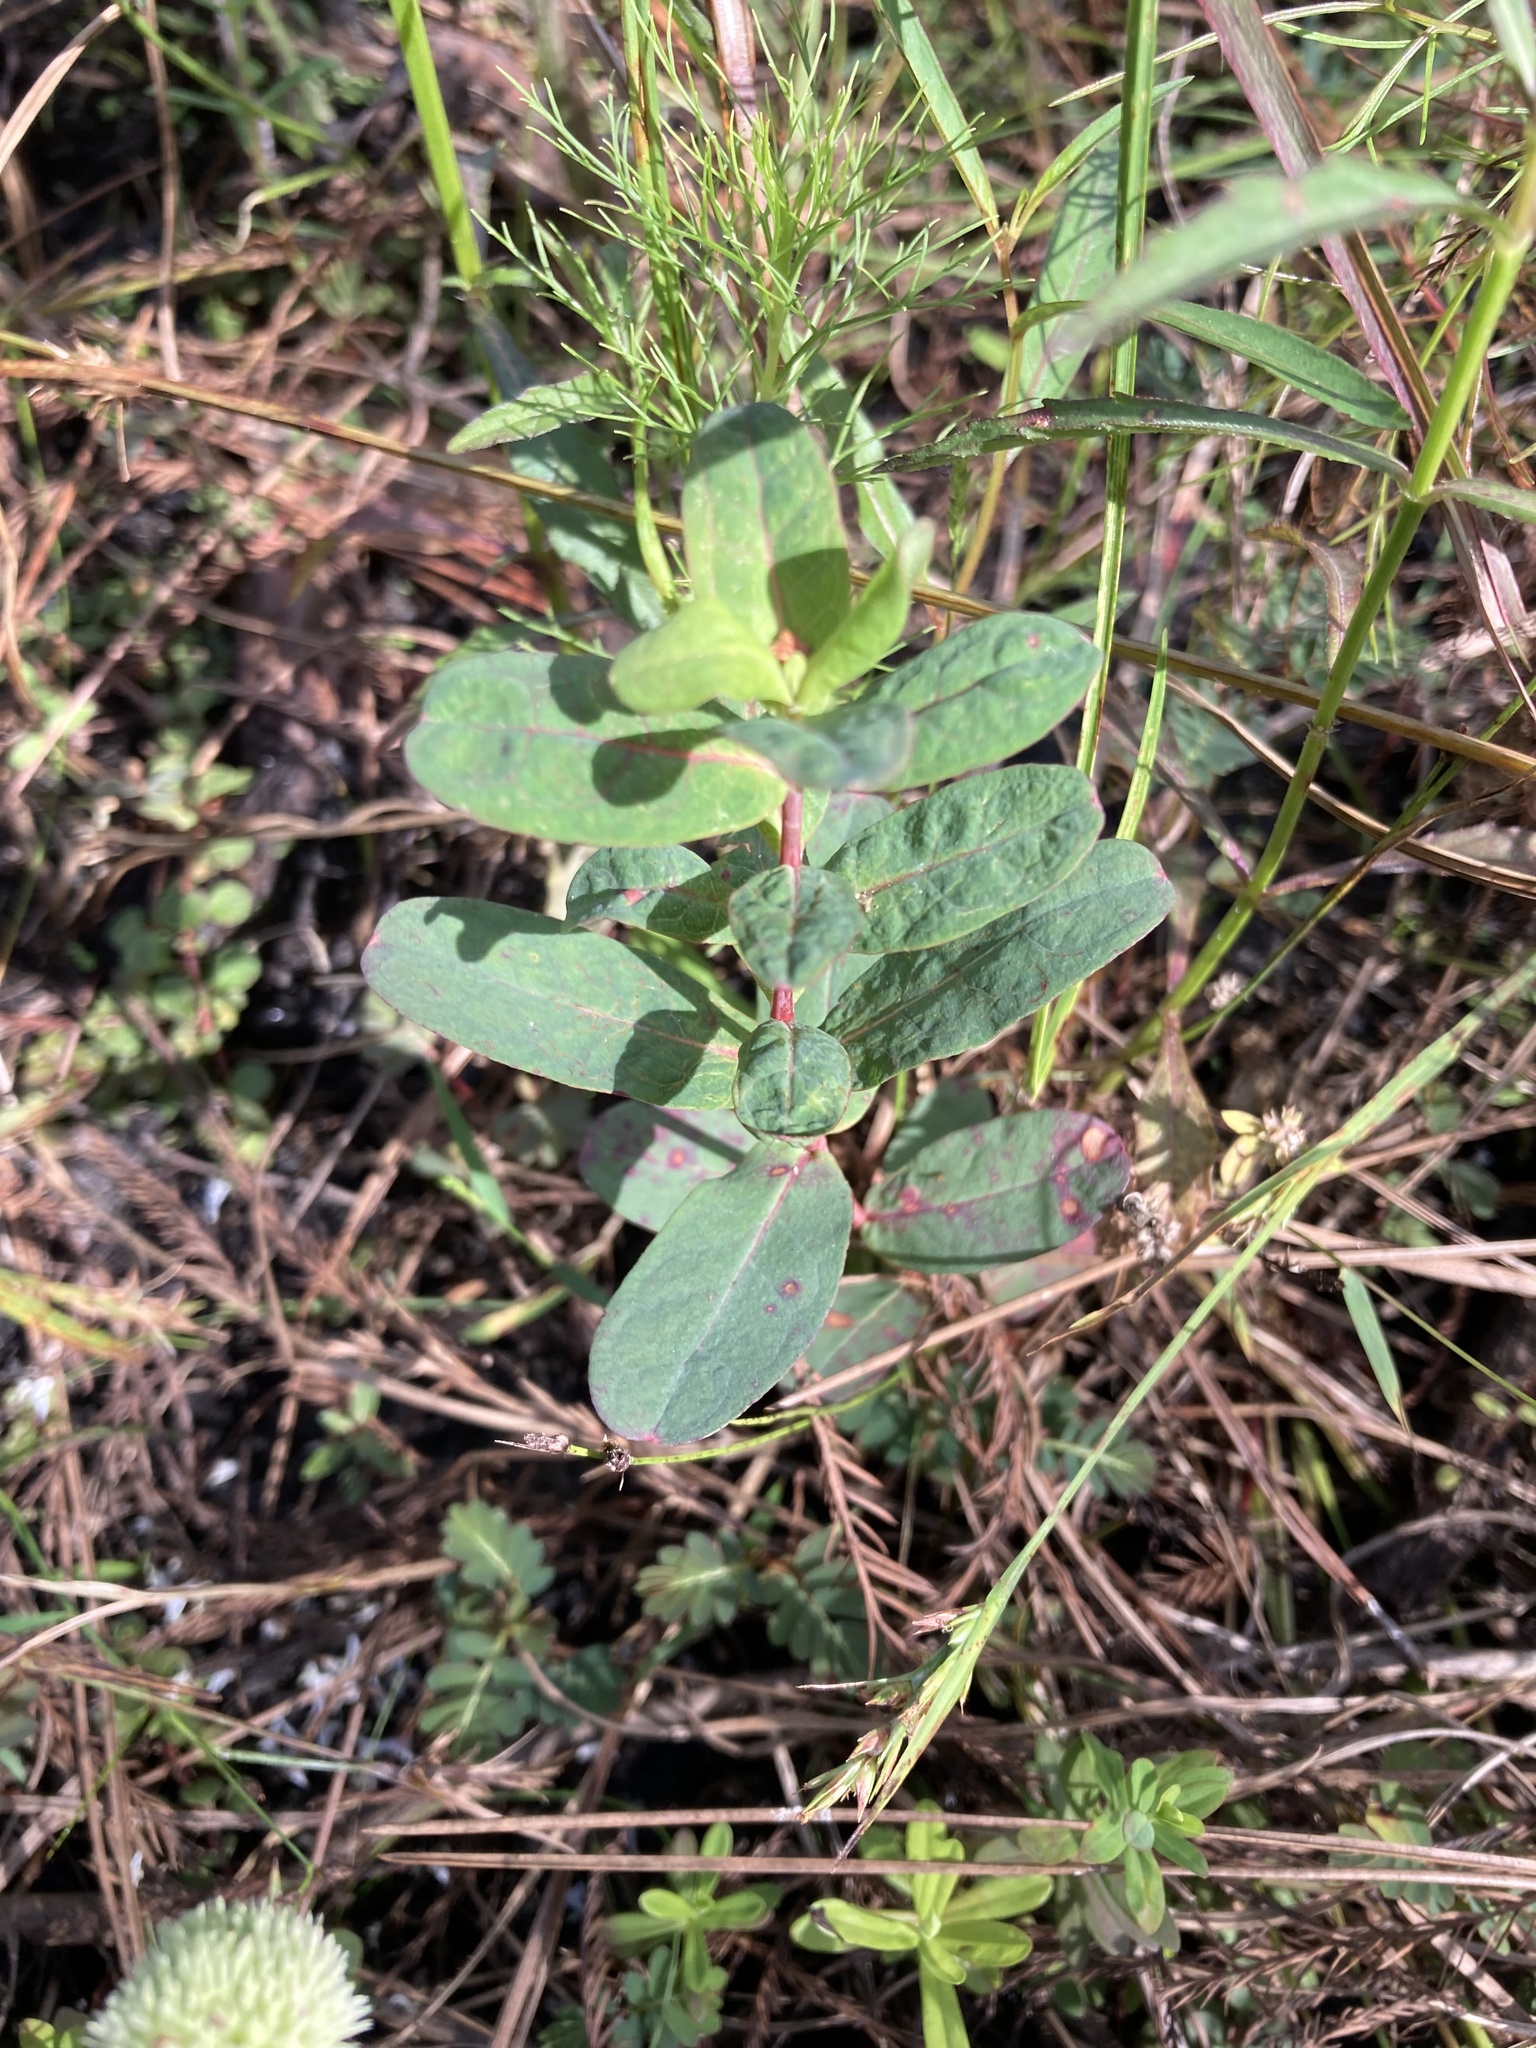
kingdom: Plantae
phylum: Tracheophyta
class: Magnoliopsida
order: Malpighiales
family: Hypericaceae
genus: Triadenum
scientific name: Triadenum virginicum
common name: Marsh st. john's-wort
